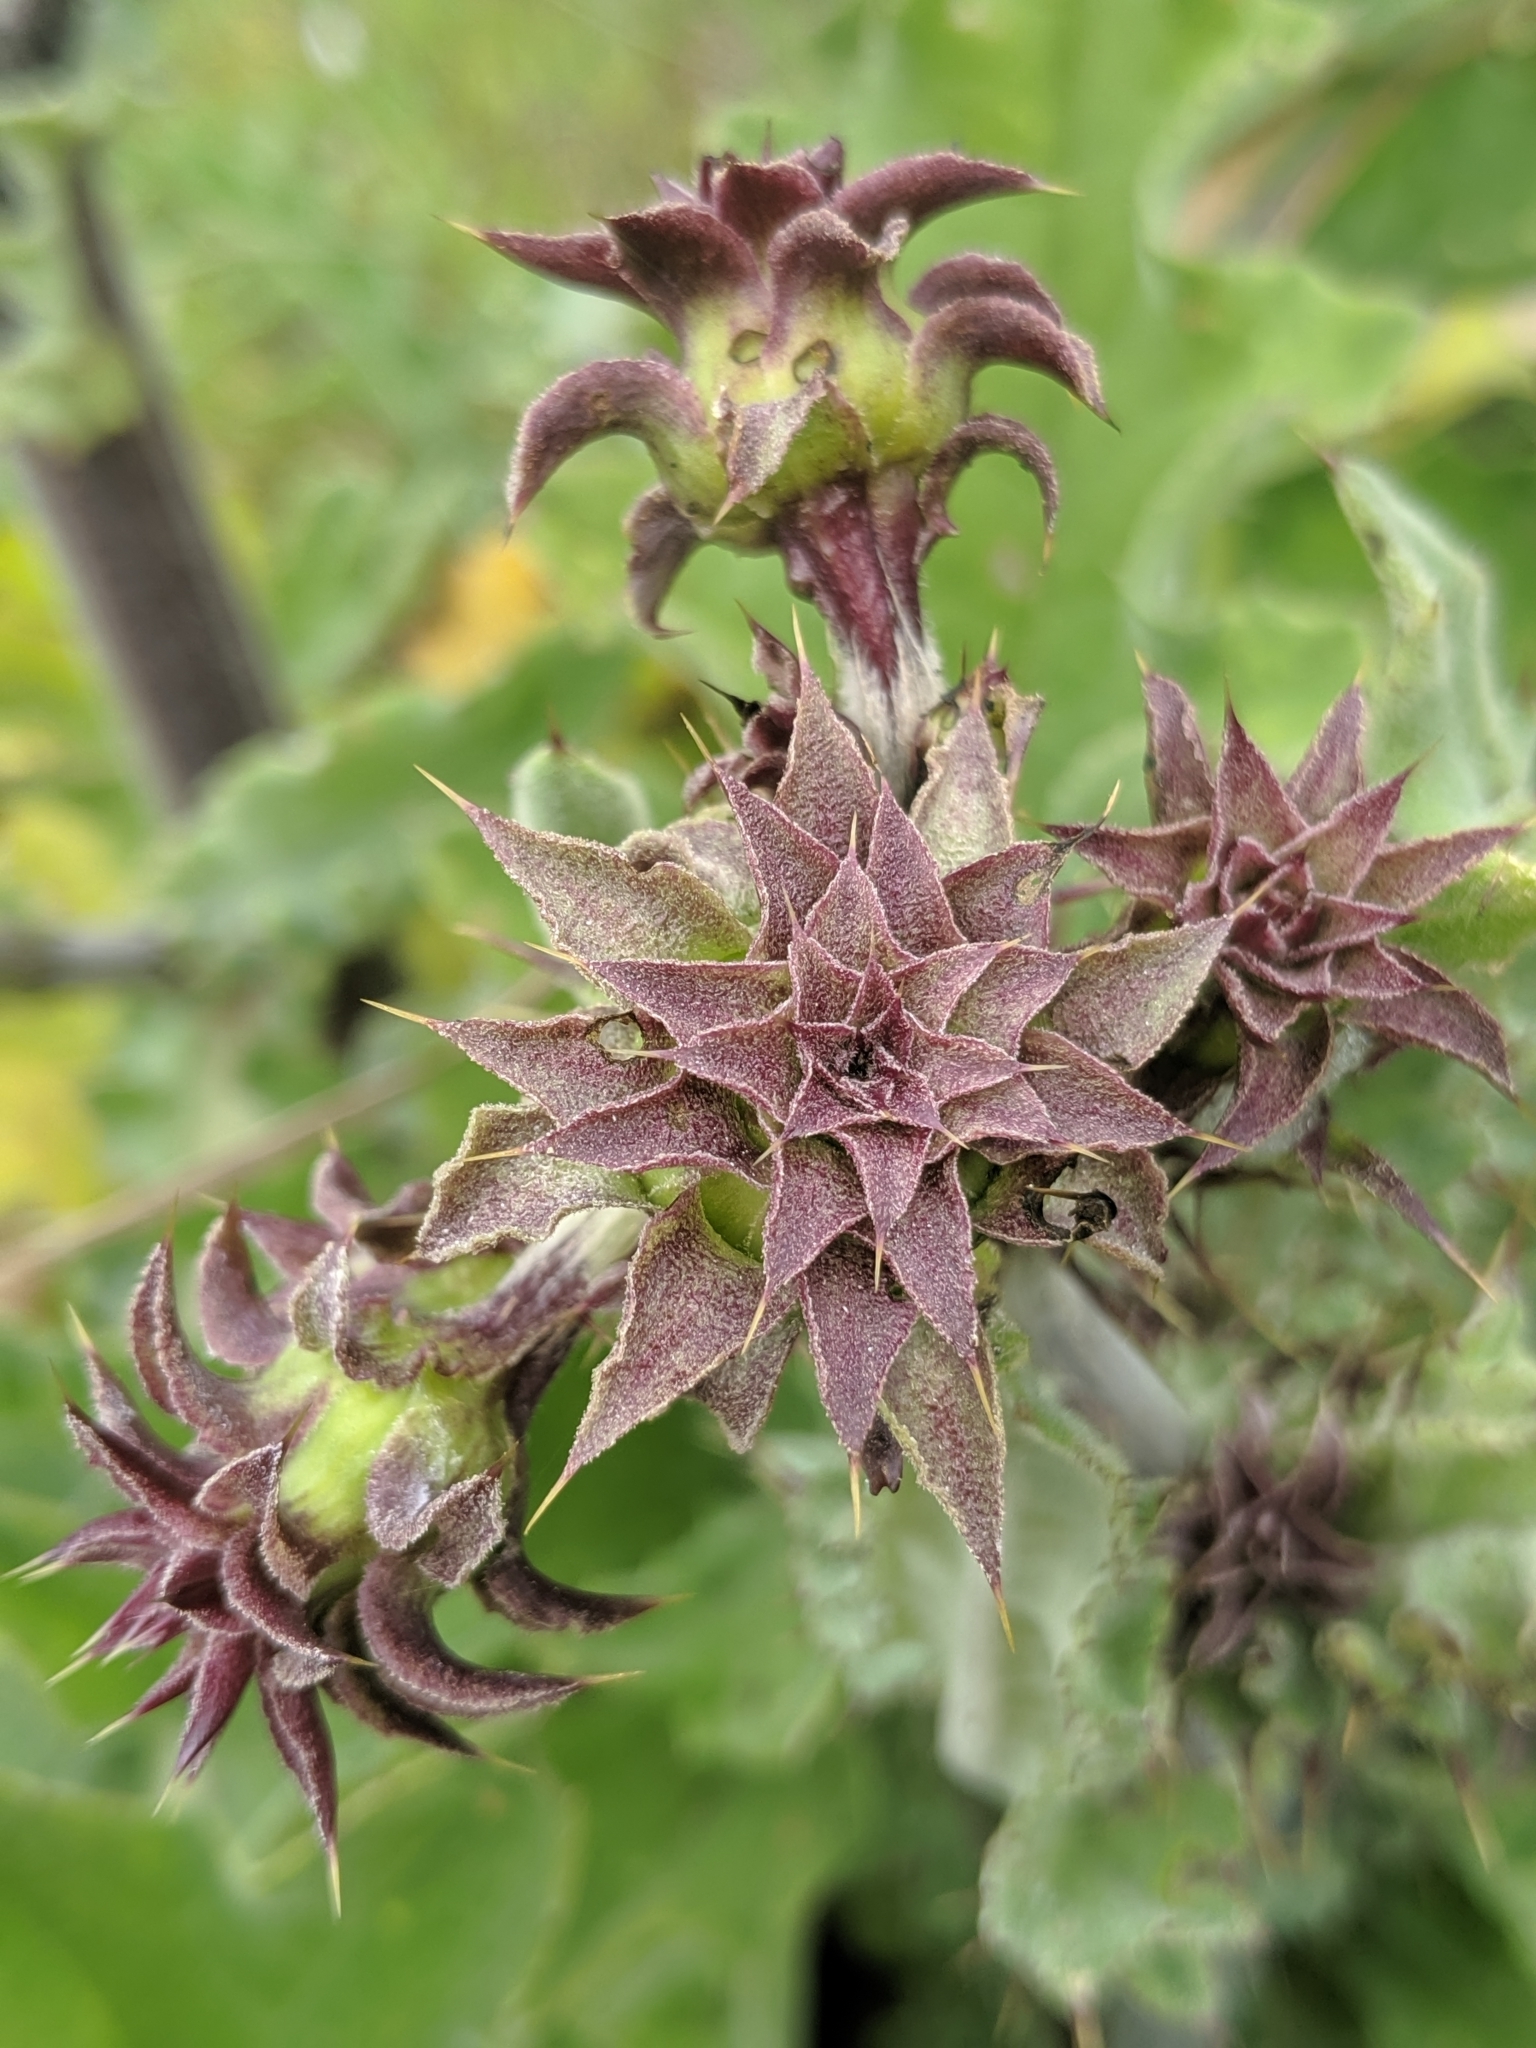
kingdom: Plantae
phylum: Tracheophyta
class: Magnoliopsida
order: Asterales
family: Asteraceae
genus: Cirsium
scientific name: Cirsium fontinale
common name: Fountain thistle
